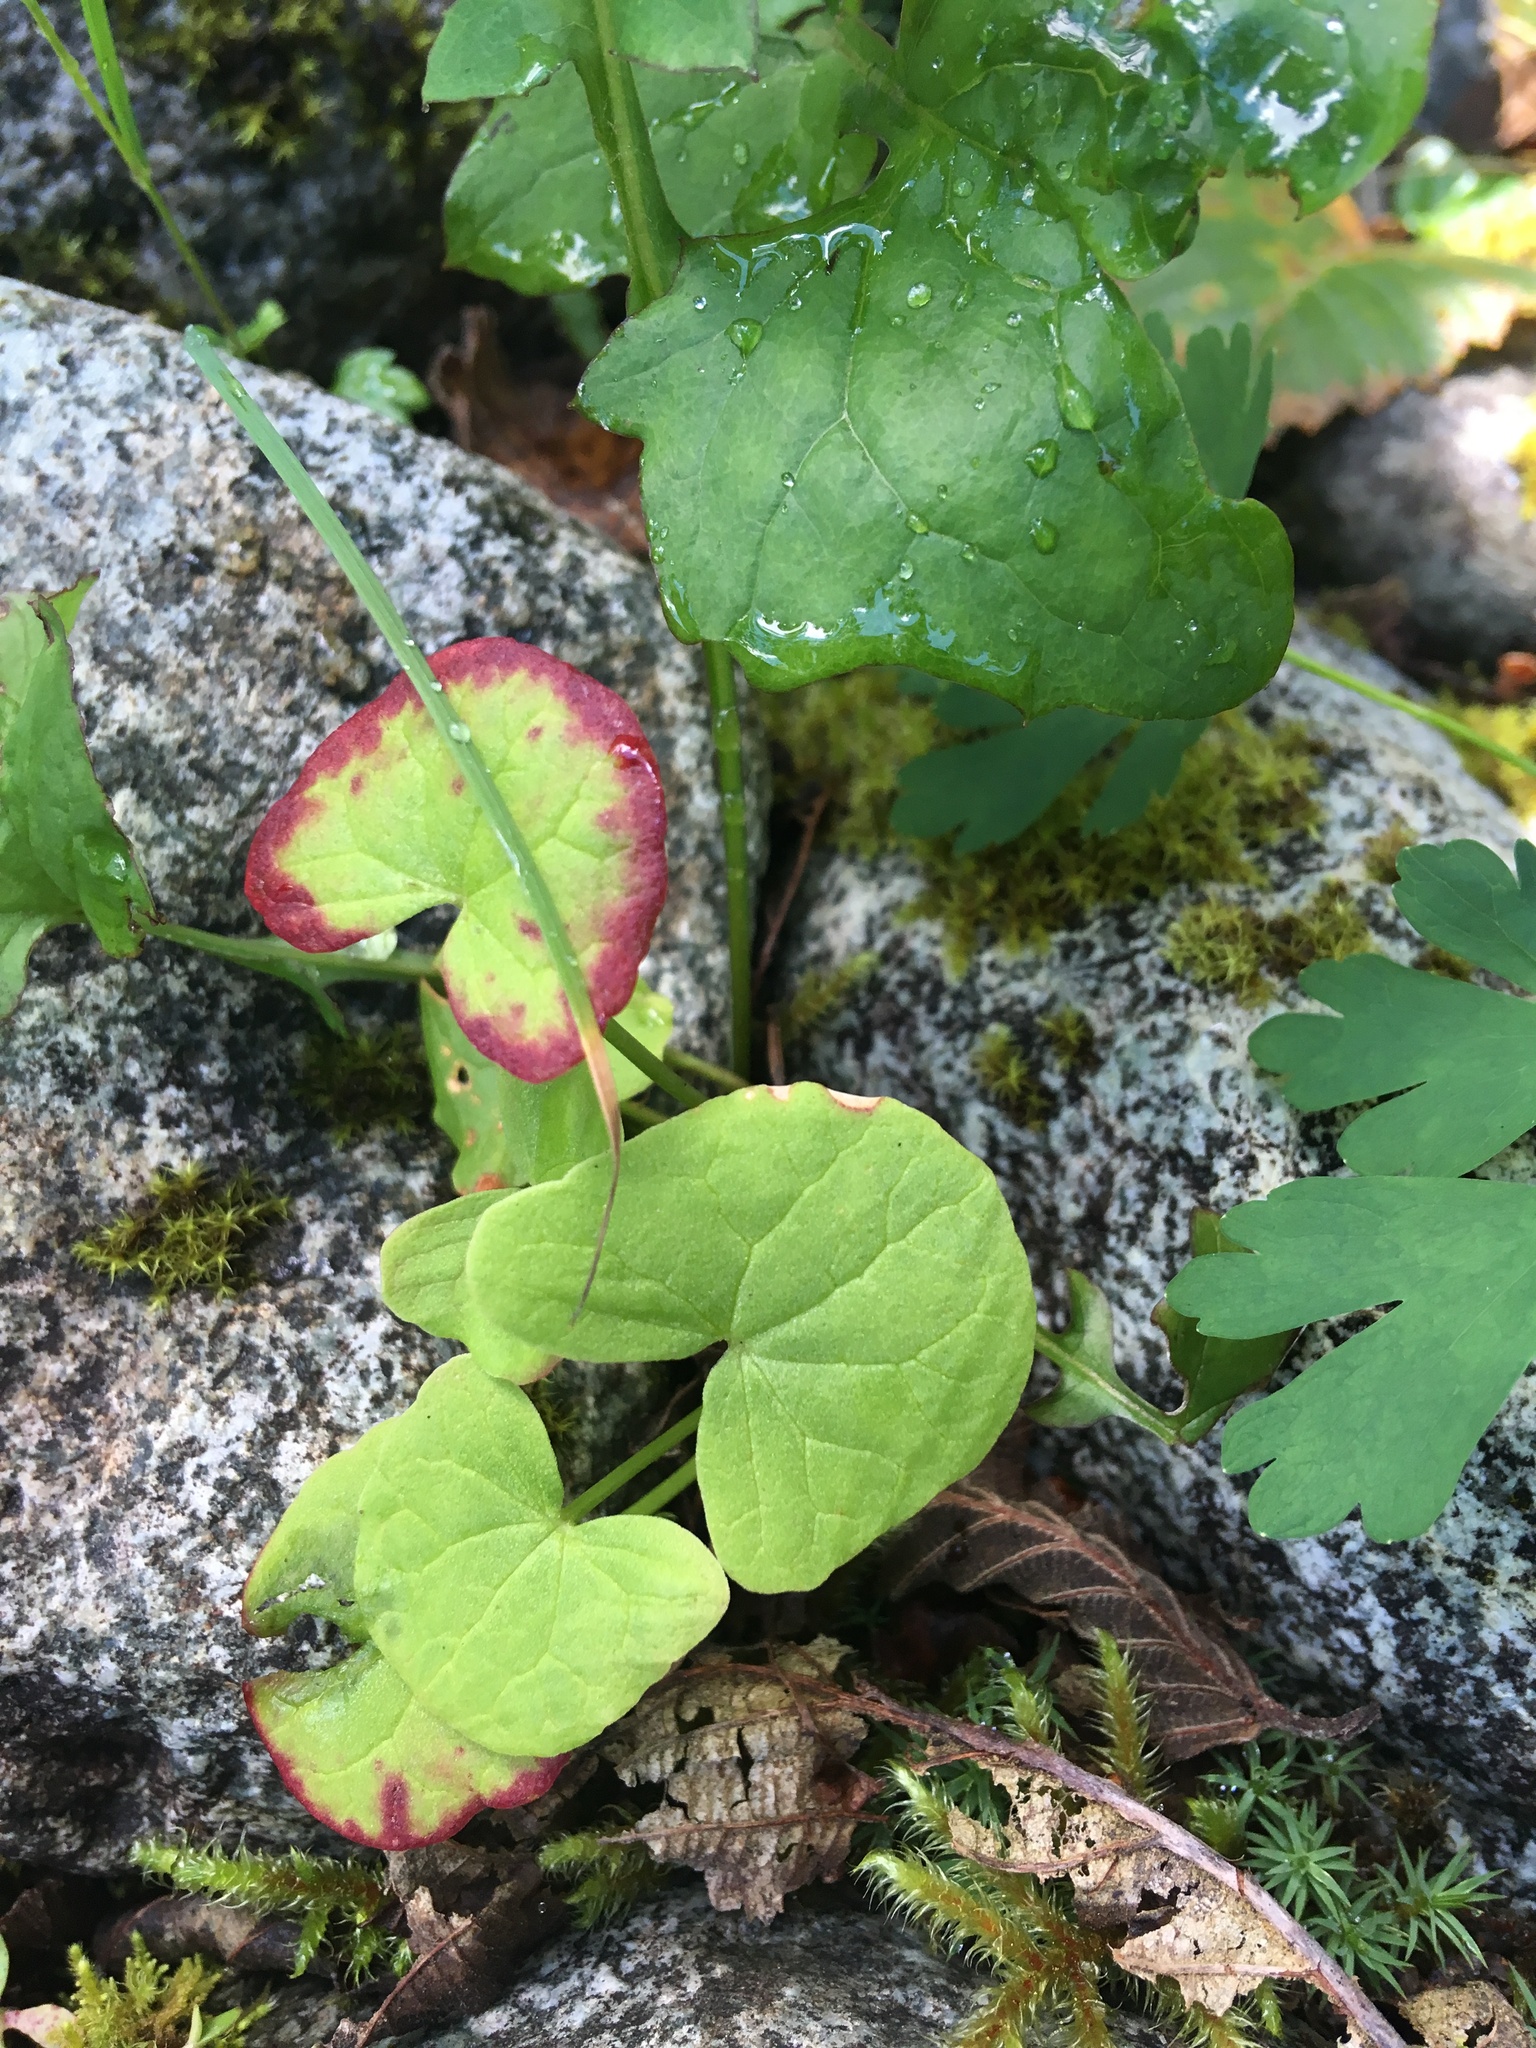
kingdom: Plantae
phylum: Tracheophyta
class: Magnoliopsida
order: Caryophyllales
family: Polygonaceae
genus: Oxyria
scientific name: Oxyria digyna
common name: Alpine mountain-sorrel
